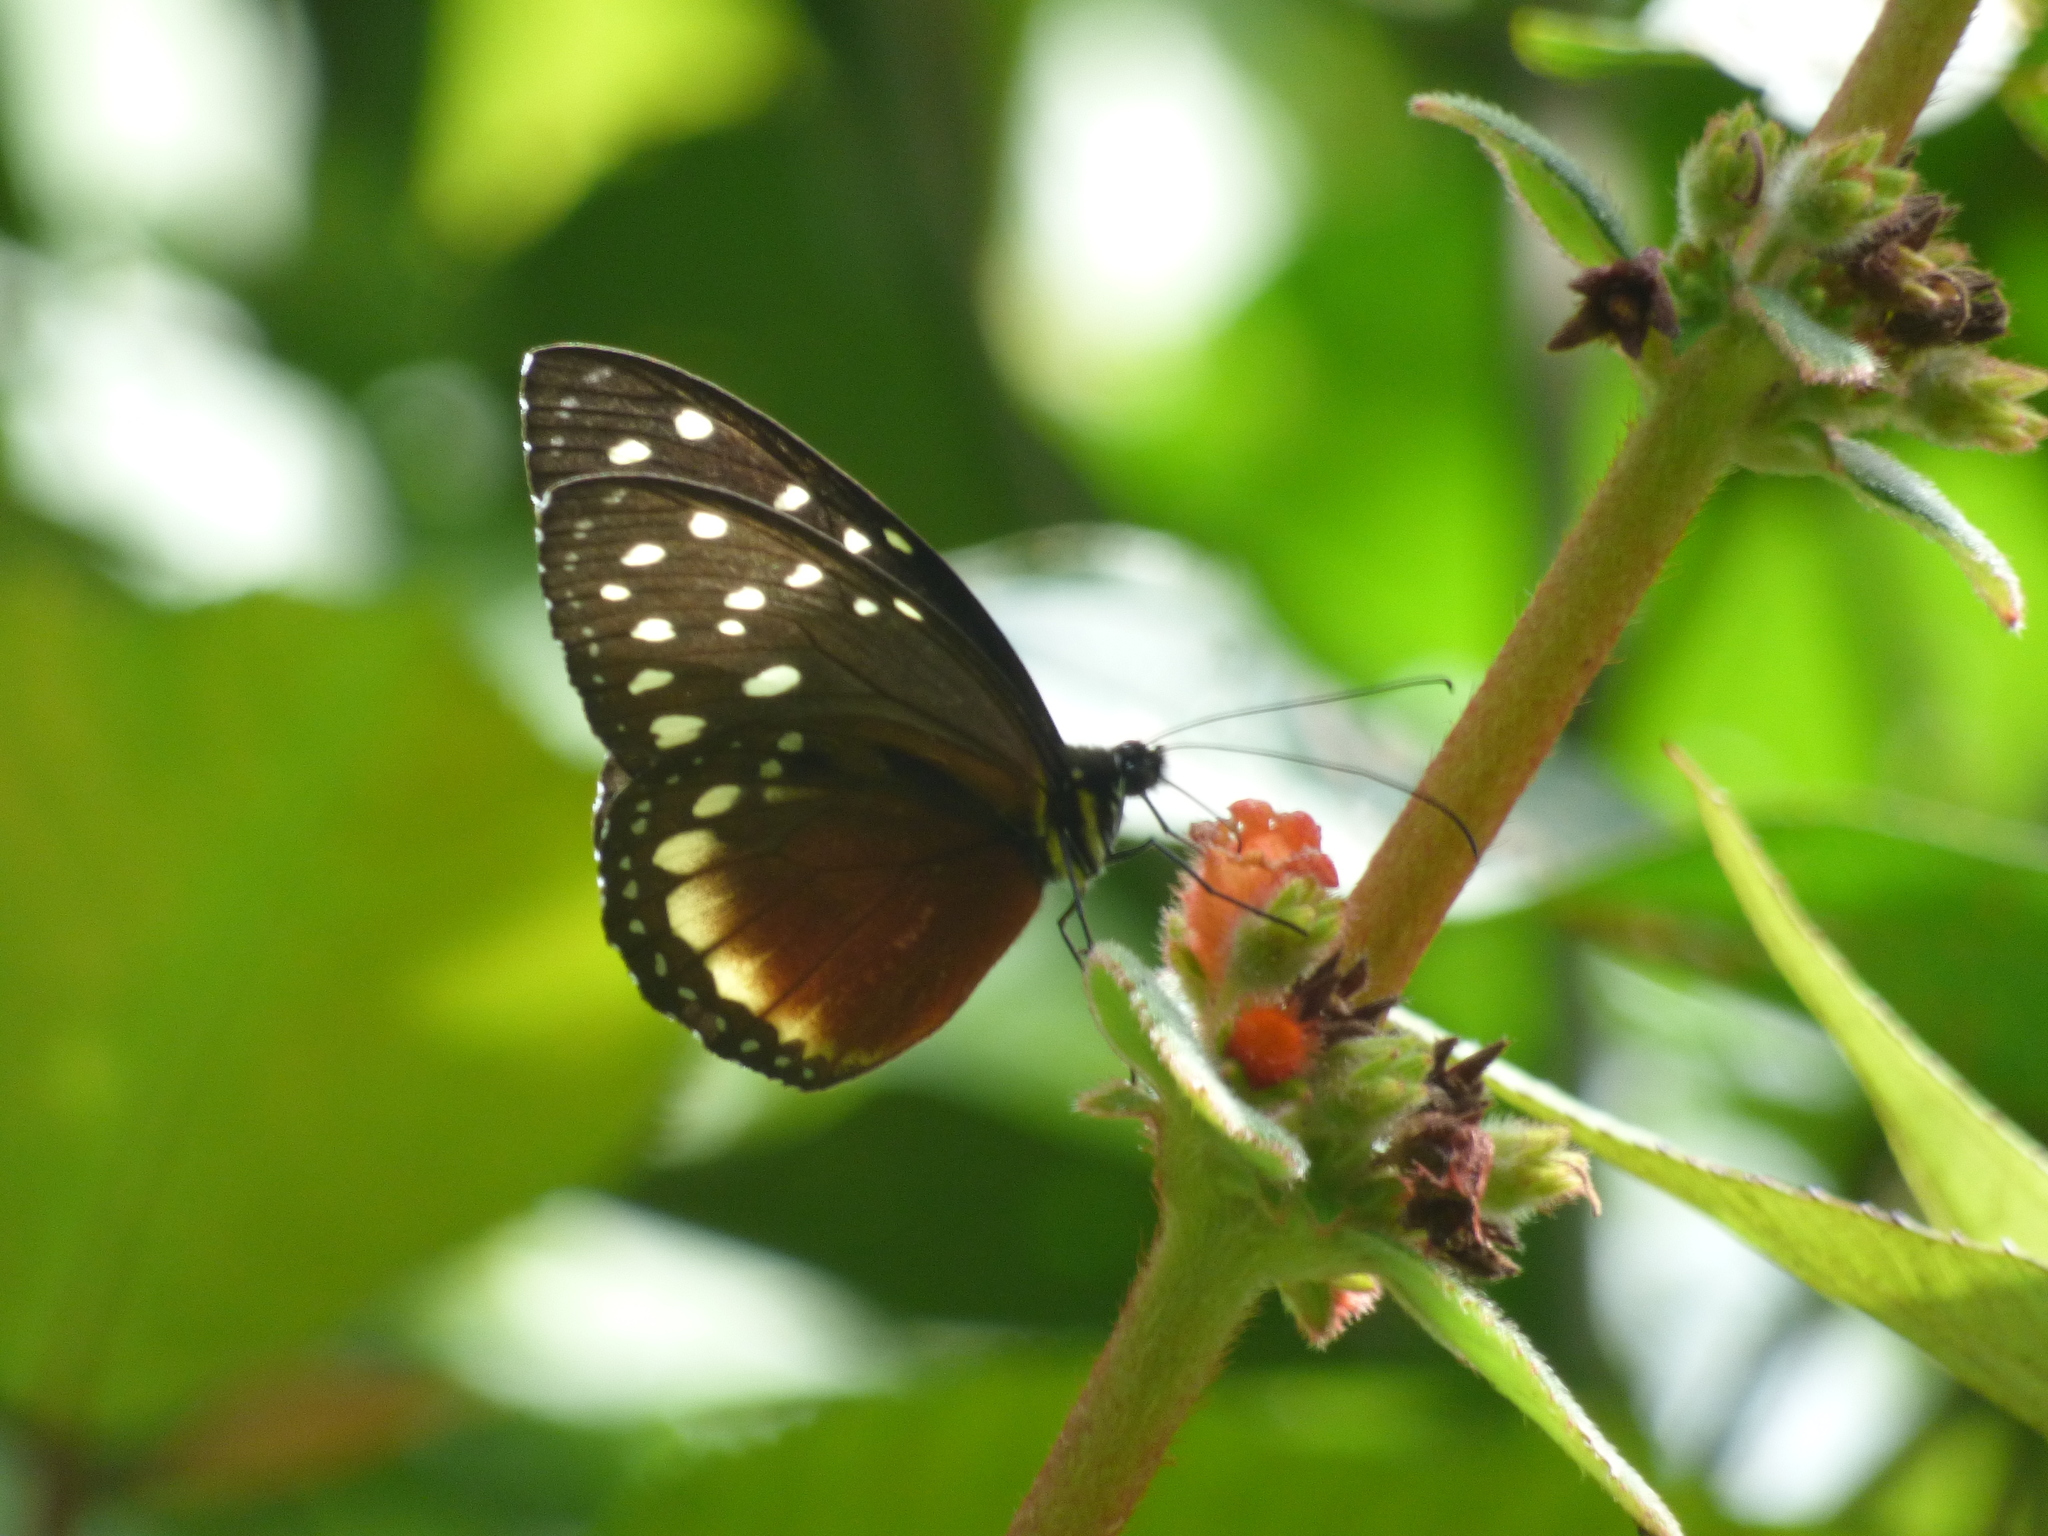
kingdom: Animalia
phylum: Arthropoda
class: Insecta
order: Lepidoptera
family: Nymphalidae
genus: Tithorea
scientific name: Tithorea tarricina
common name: Cream-spotted tigerwing
